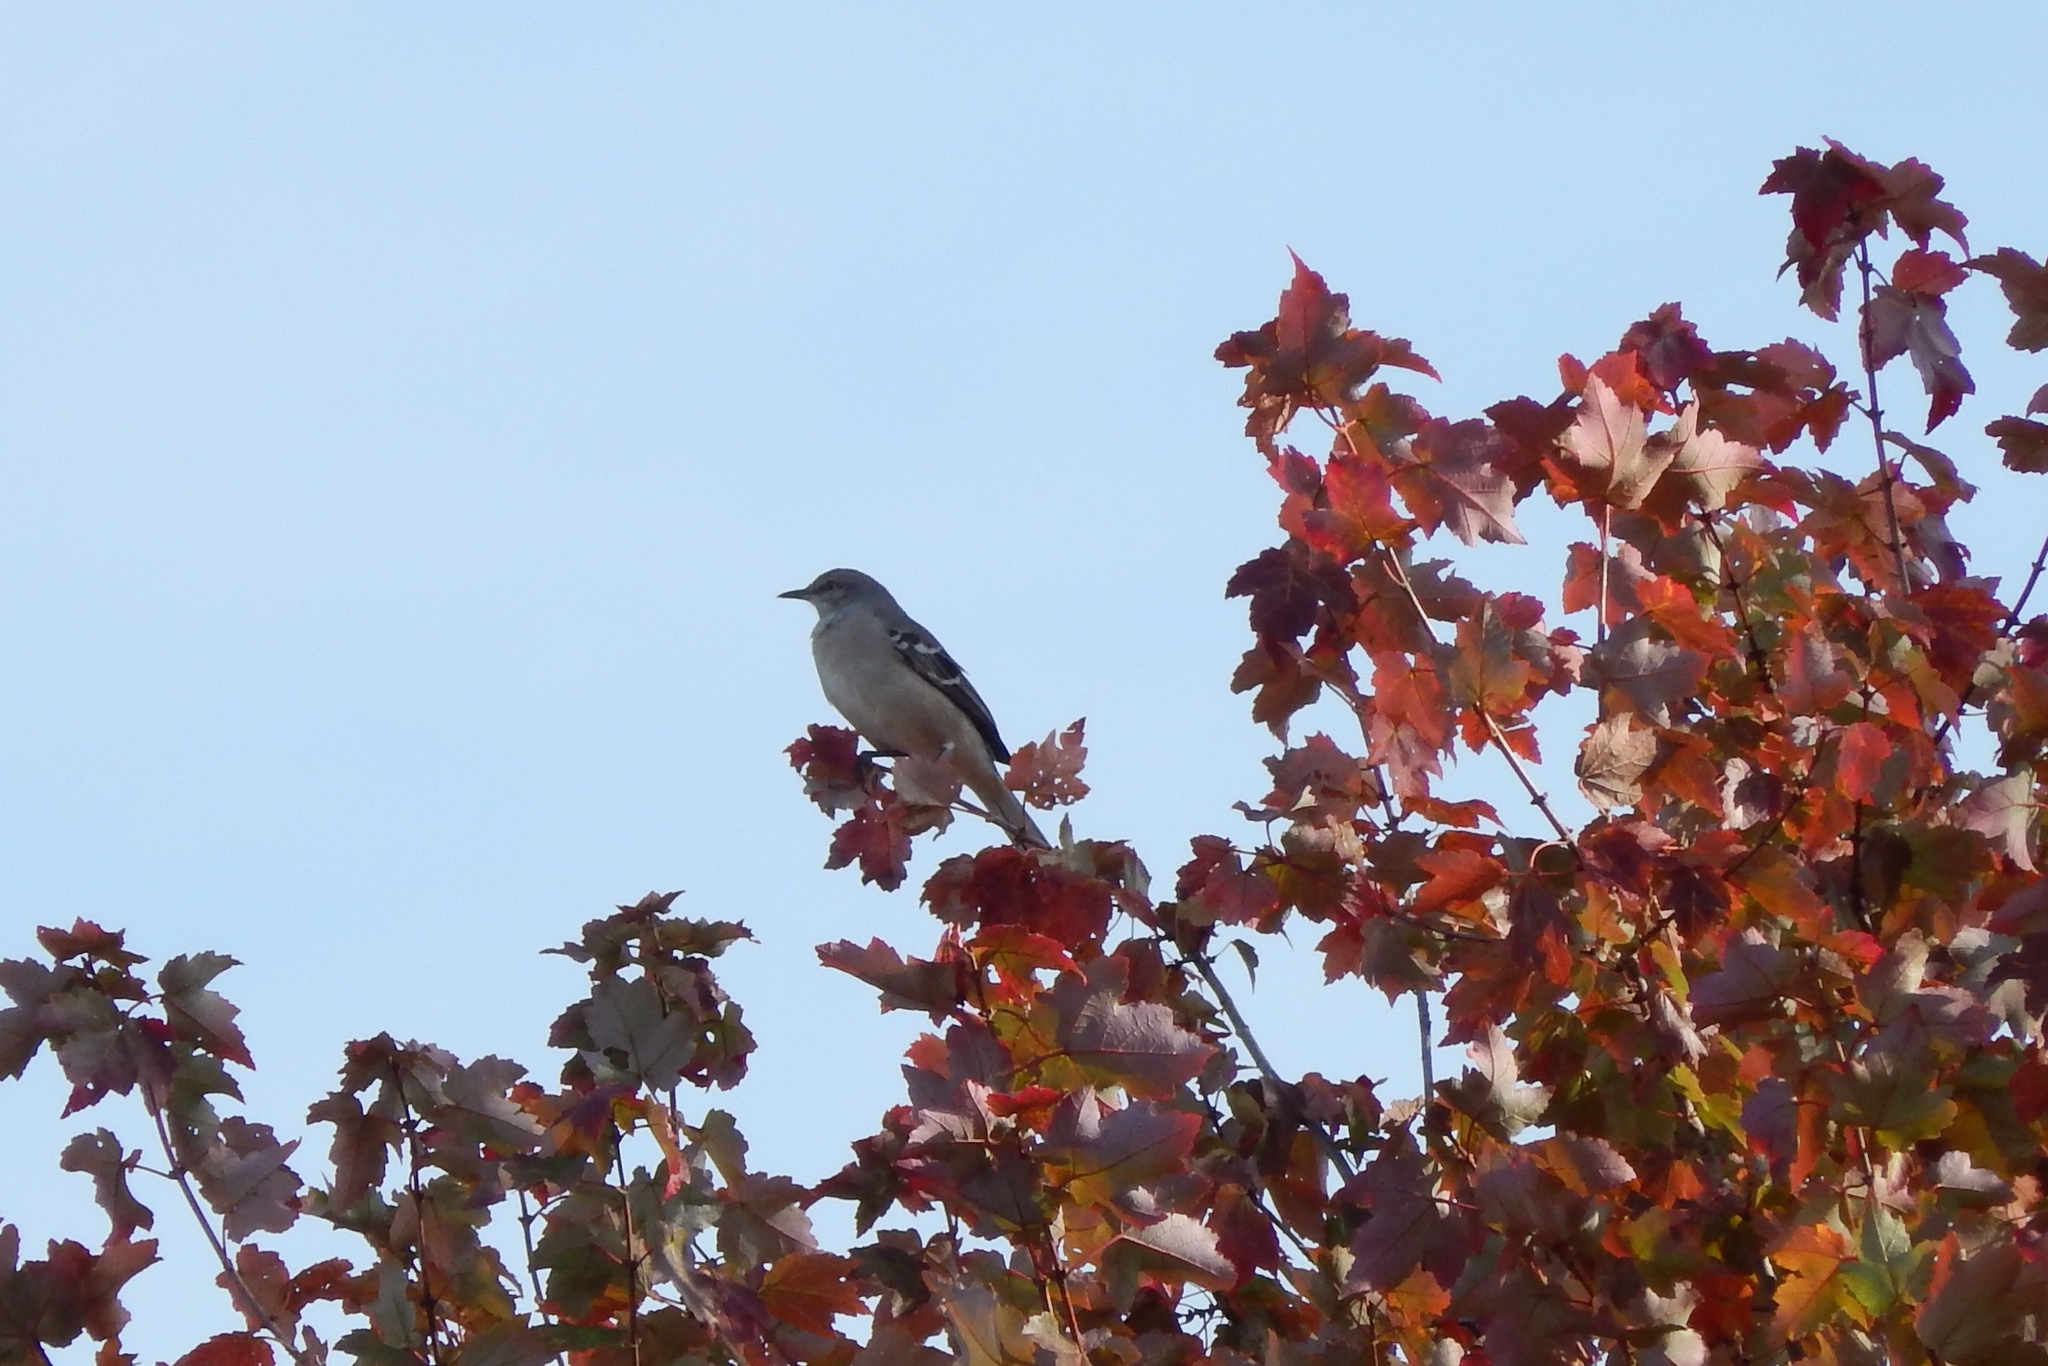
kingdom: Animalia
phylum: Chordata
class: Aves
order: Passeriformes
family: Mimidae
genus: Mimus
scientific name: Mimus polyglottos
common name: Northern mockingbird
